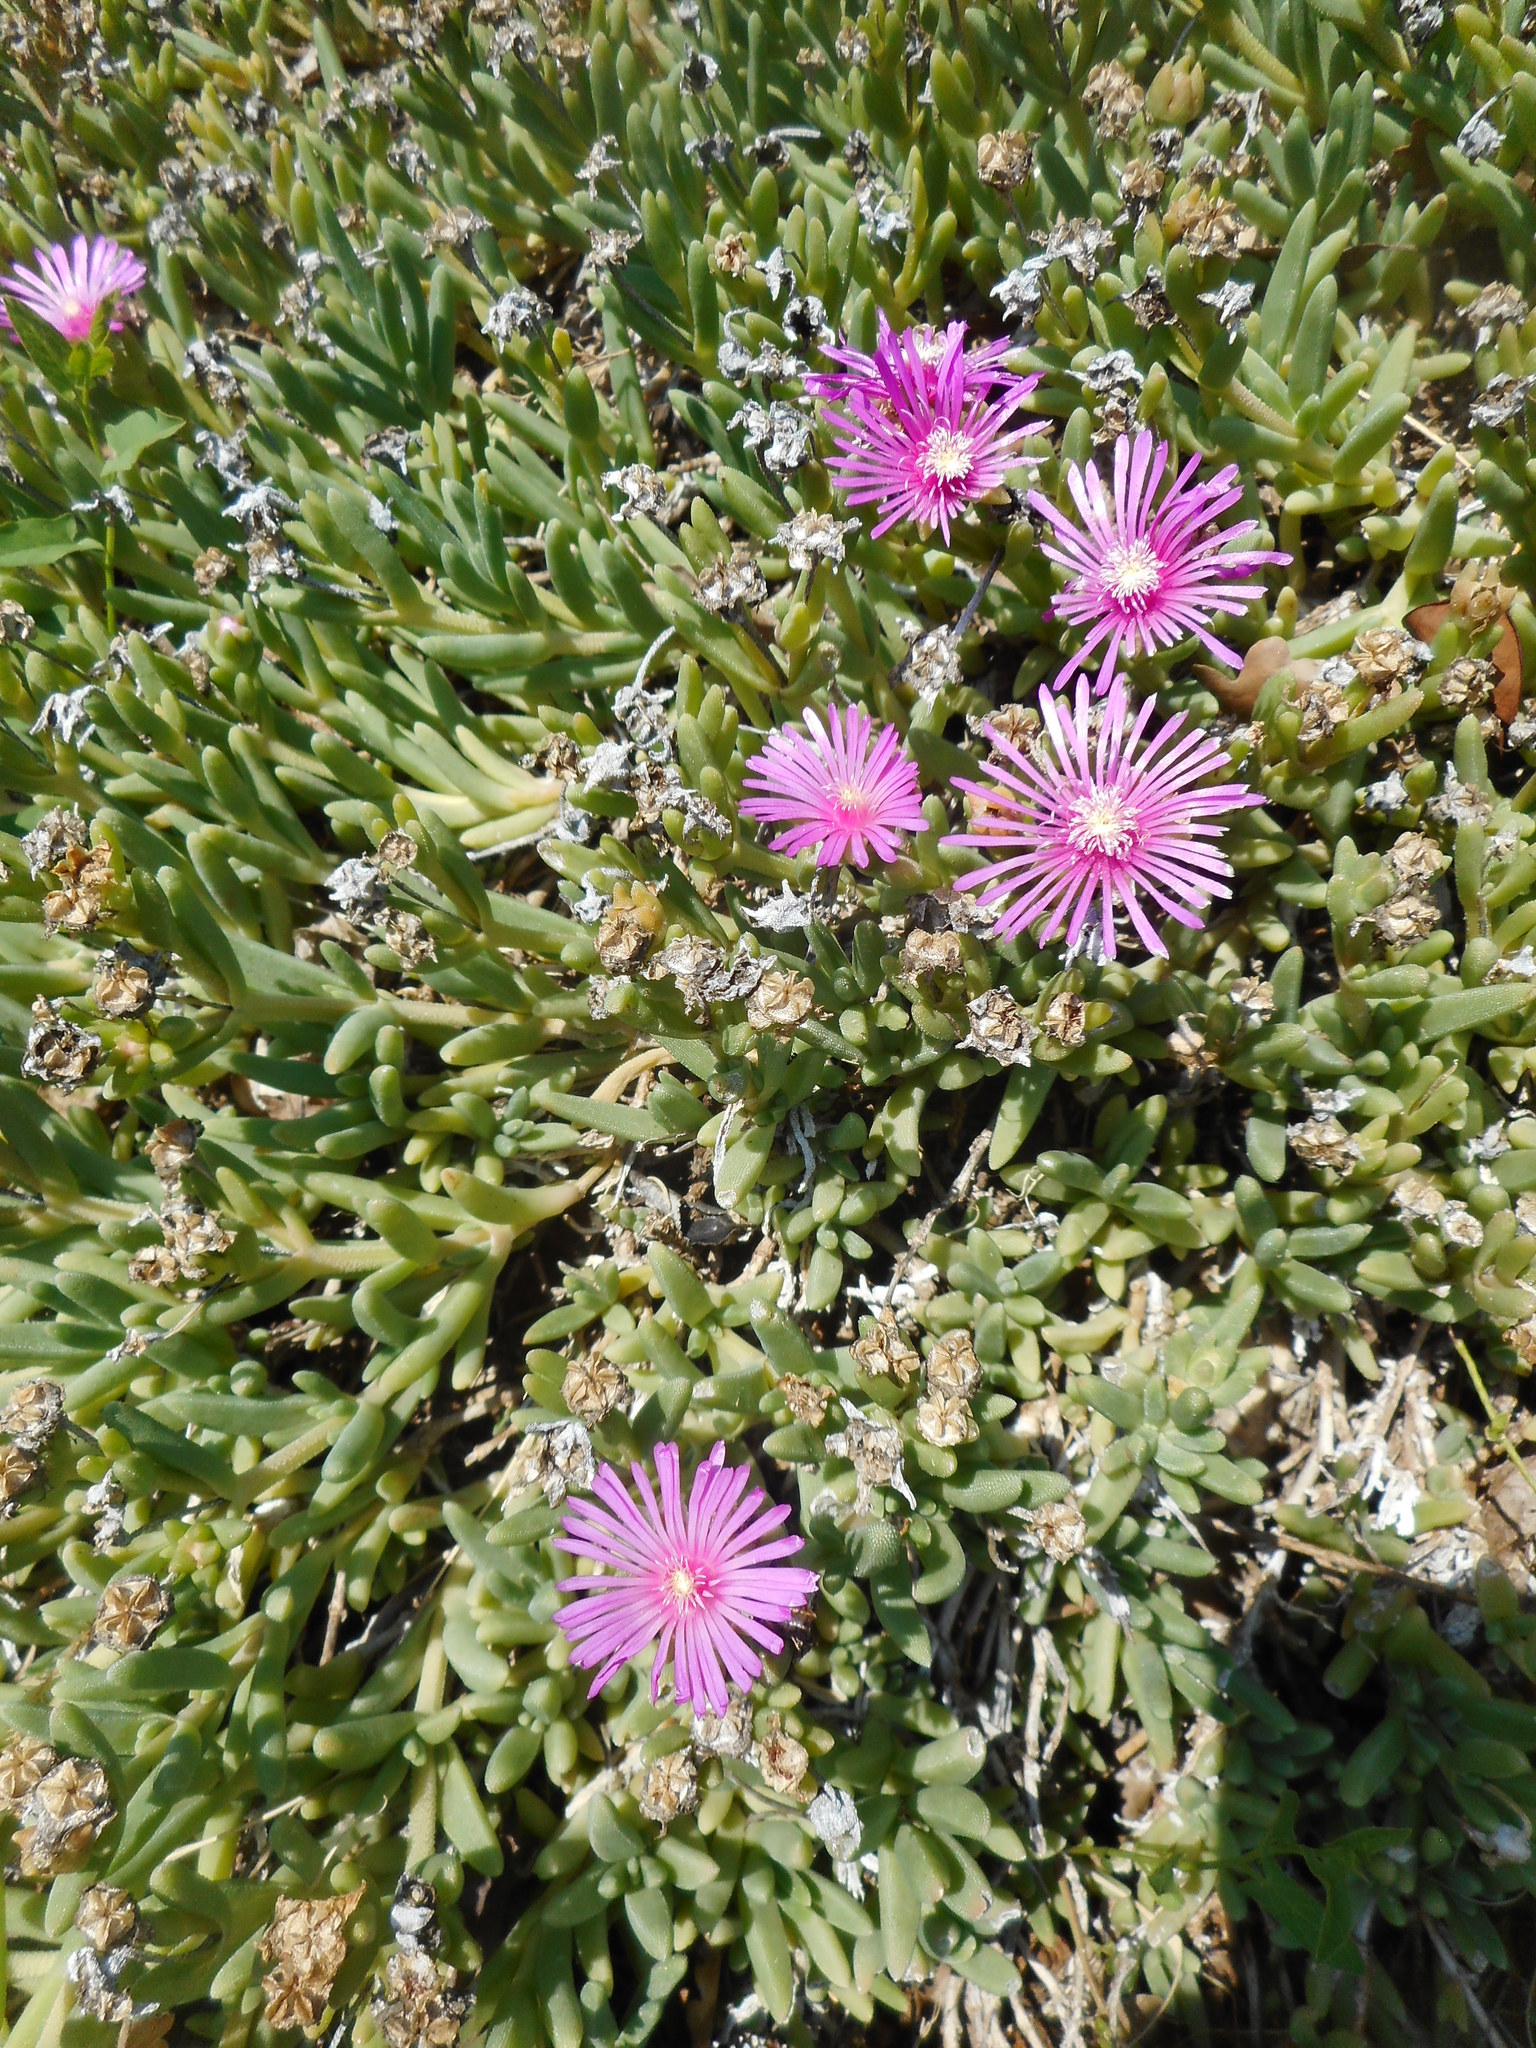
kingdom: Plantae
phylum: Tracheophyta
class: Magnoliopsida
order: Caryophyllales
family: Aizoaceae
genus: Delosperma
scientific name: Delosperma cooperi
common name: Hardy iceplant
